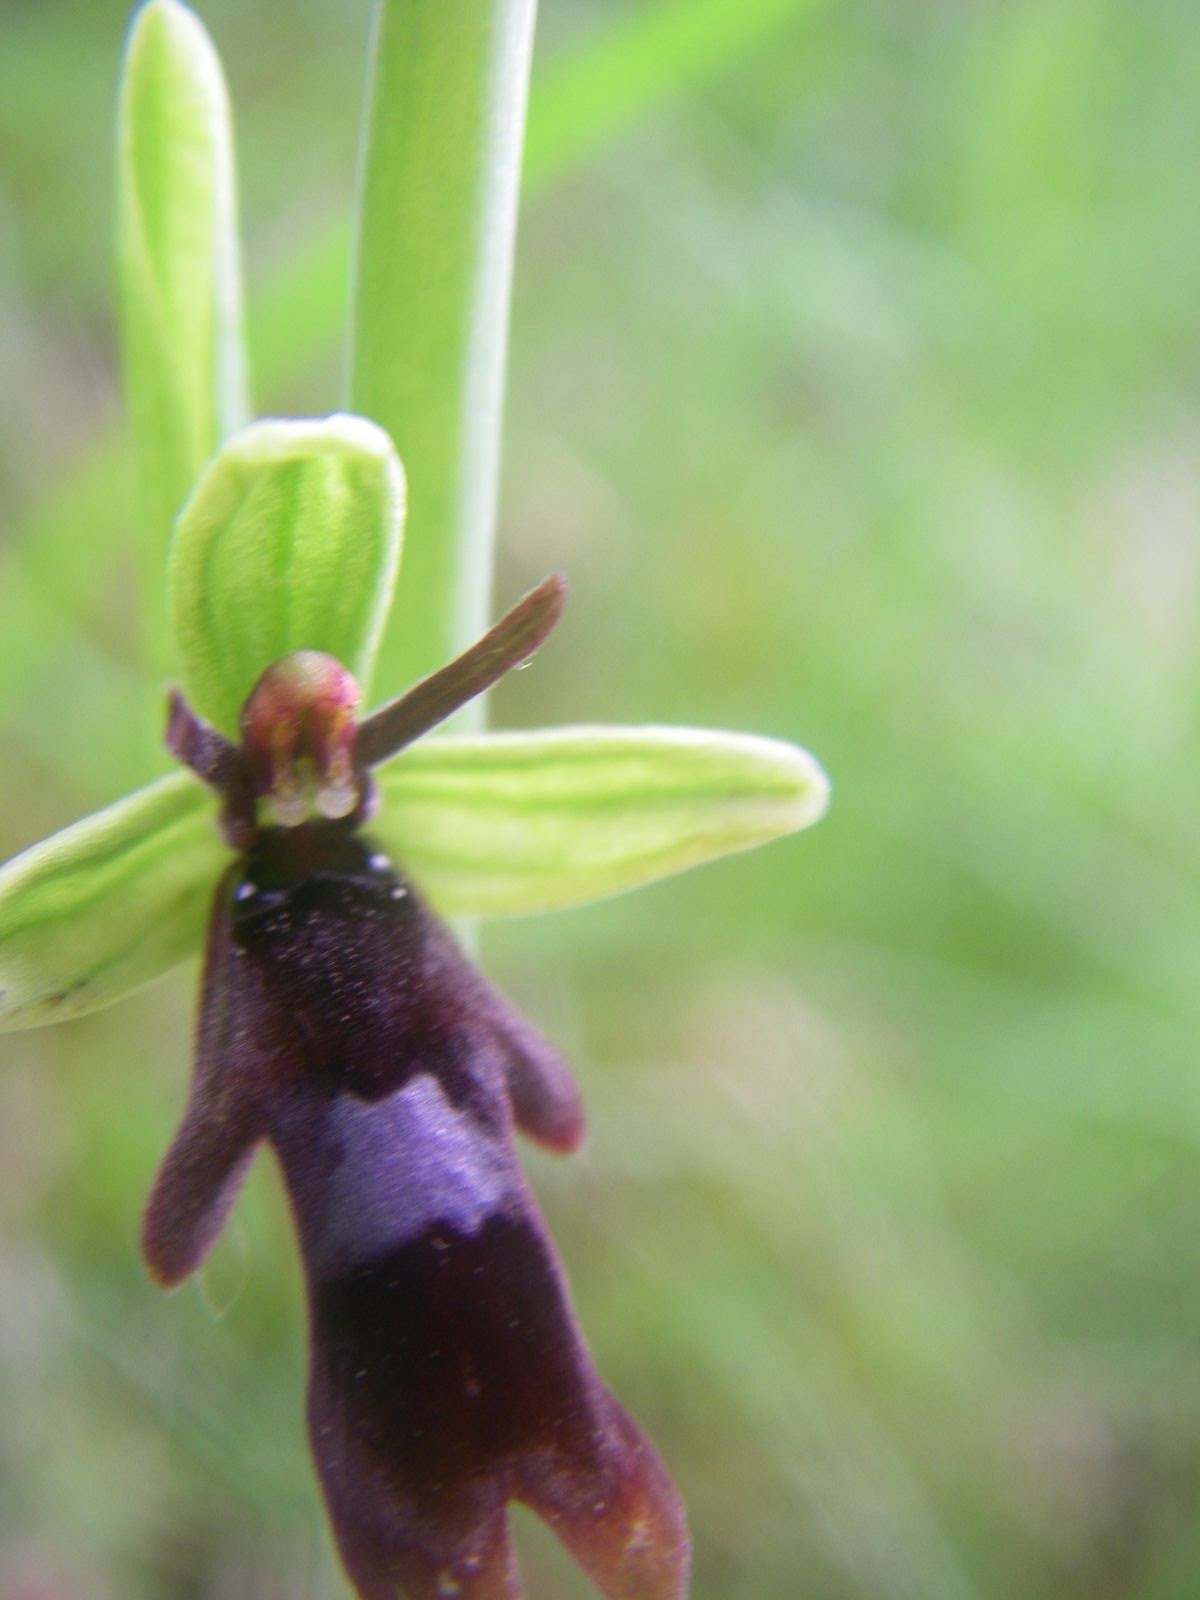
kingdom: Plantae
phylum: Tracheophyta
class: Liliopsida
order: Asparagales
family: Orchidaceae
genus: Ophrys
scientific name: Ophrys insectifera
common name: Fly orchid
